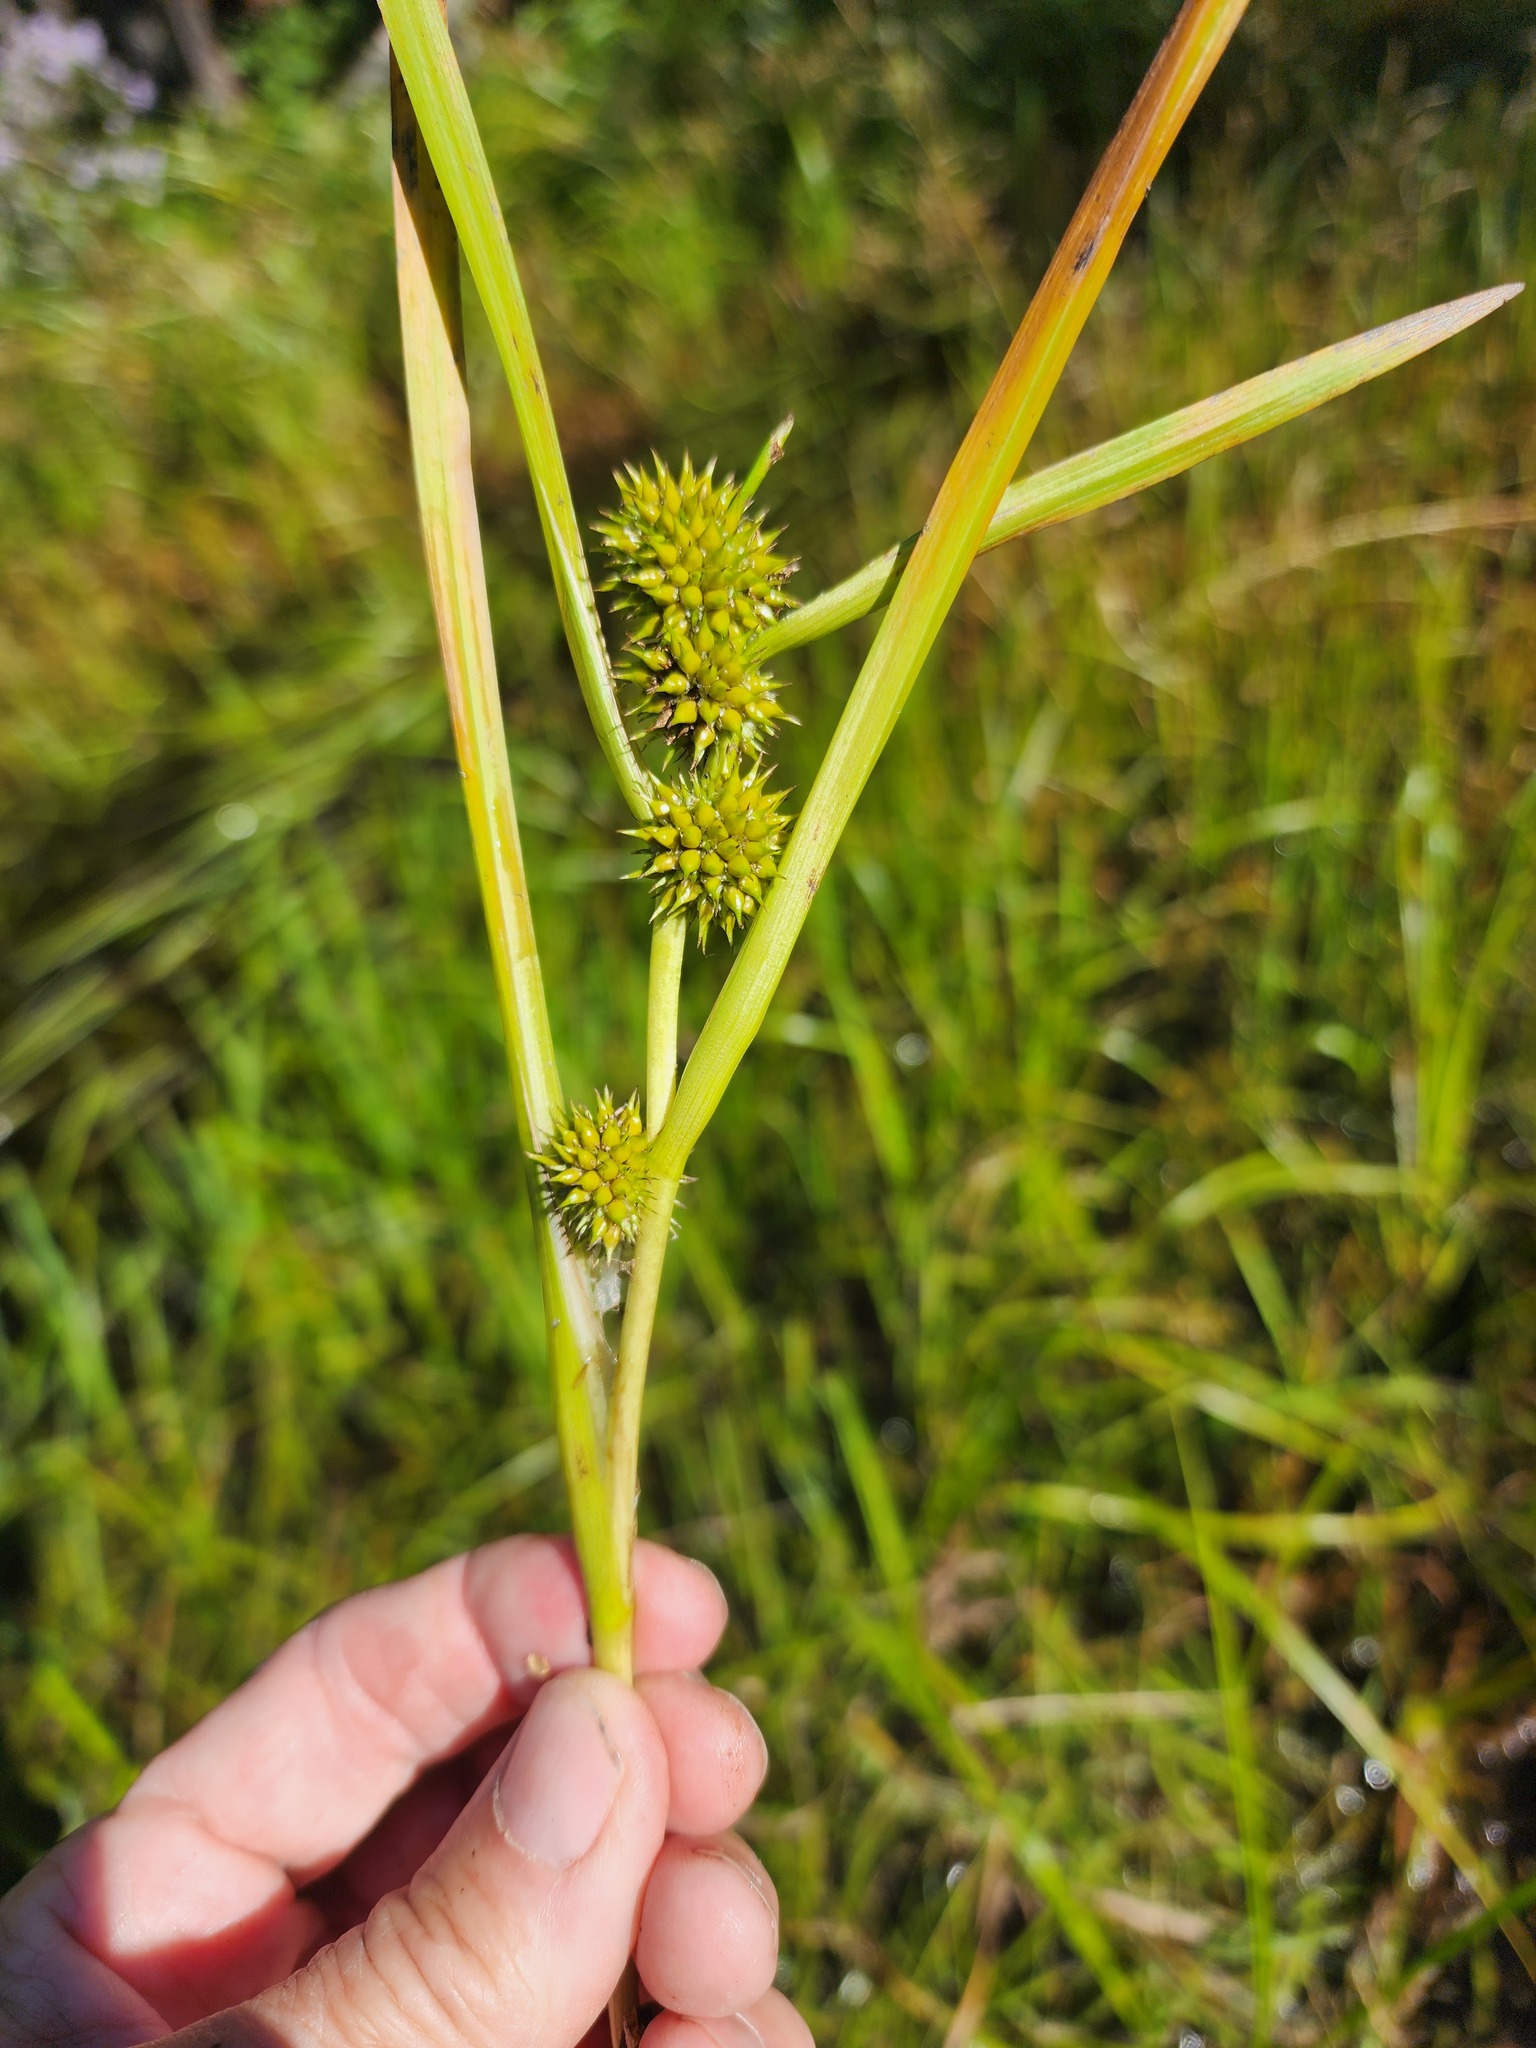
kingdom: Plantae
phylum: Tracheophyta
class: Liliopsida
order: Poales
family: Typhaceae
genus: Sparganium
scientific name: Sparganium glomeratum
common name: Clustered burreed
